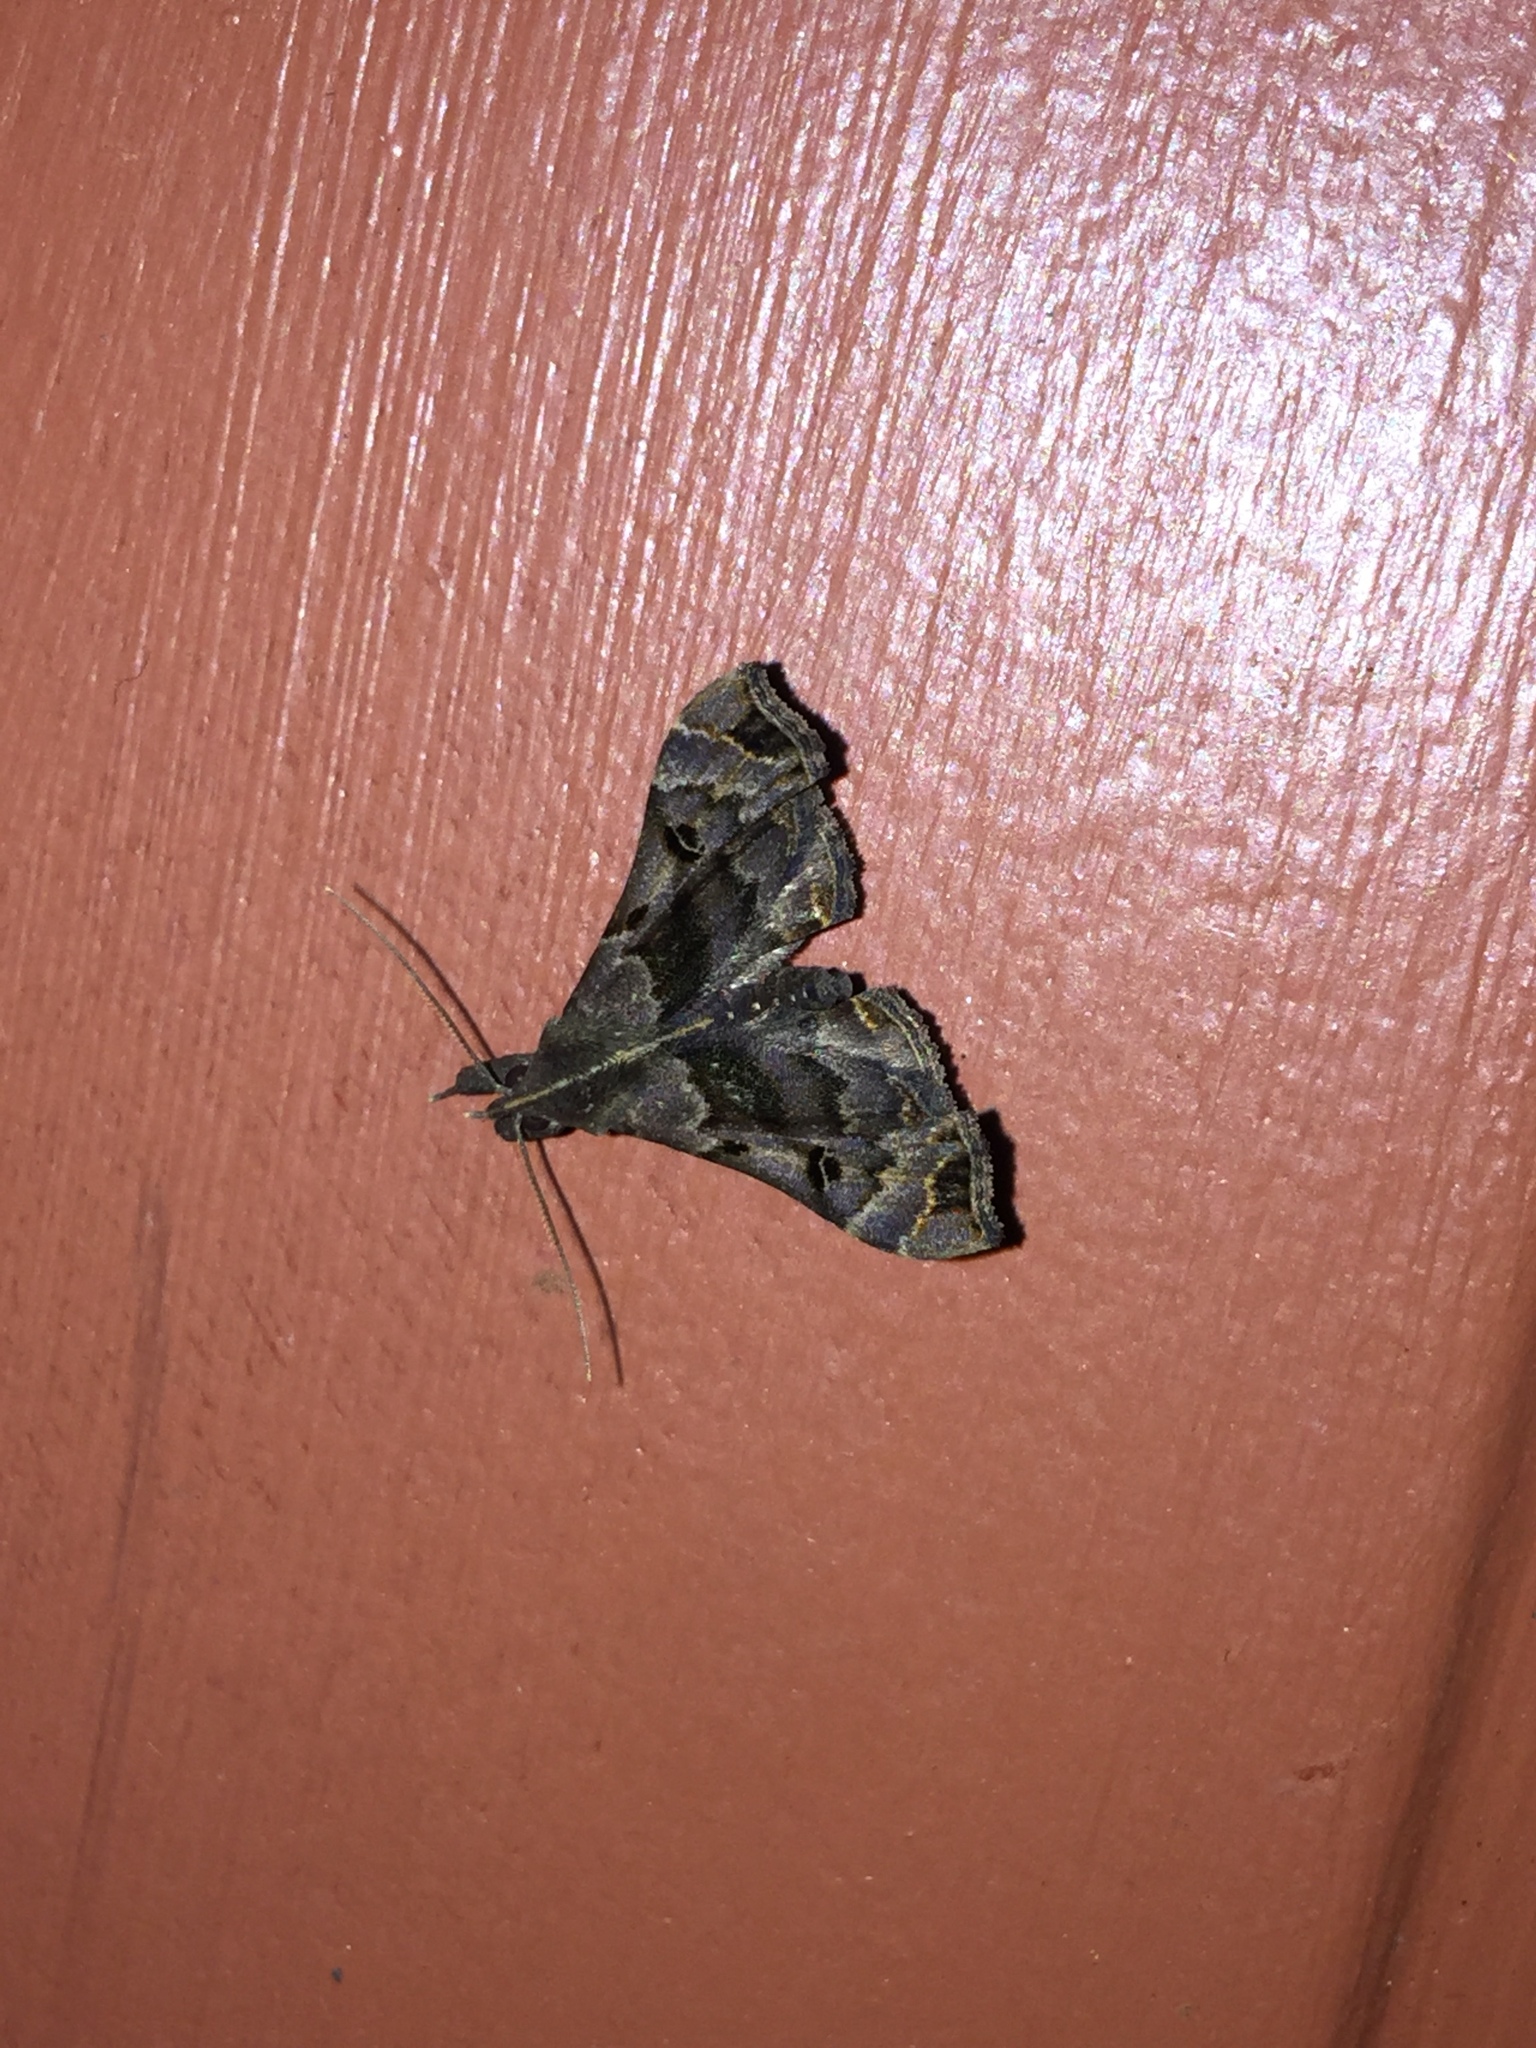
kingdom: Animalia
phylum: Arthropoda
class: Insecta
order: Lepidoptera
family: Erebidae
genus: Palthis
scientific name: Palthis asopialis
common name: Faint-spotted palthis moth
